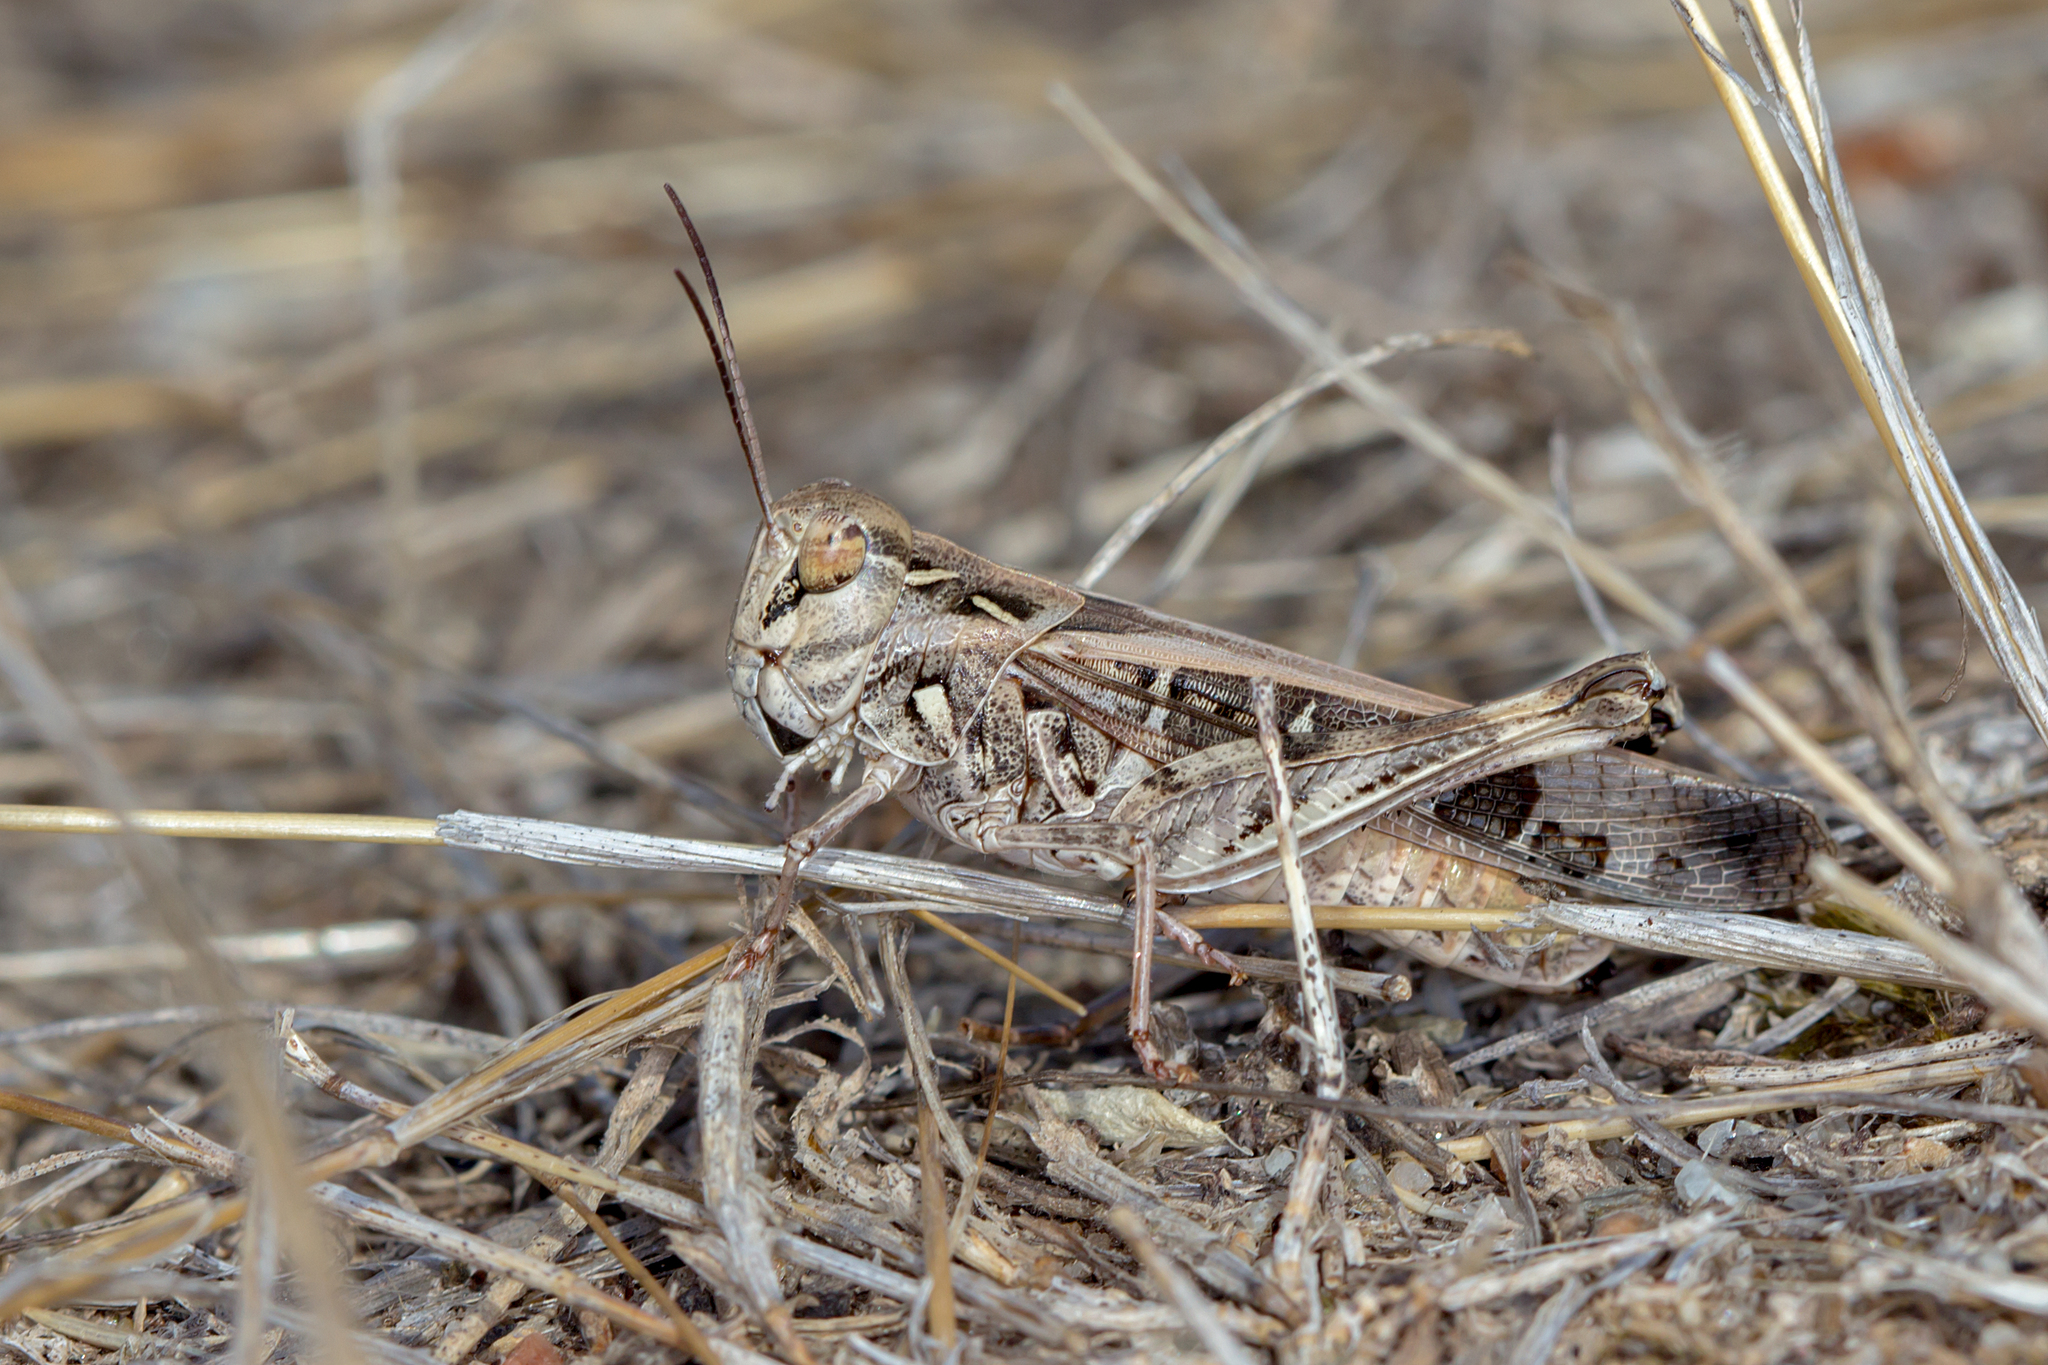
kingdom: Animalia
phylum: Arthropoda
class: Insecta
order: Orthoptera
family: Acrididae
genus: Oedaleus
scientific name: Oedaleus australis
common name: Eastern oedaleus
